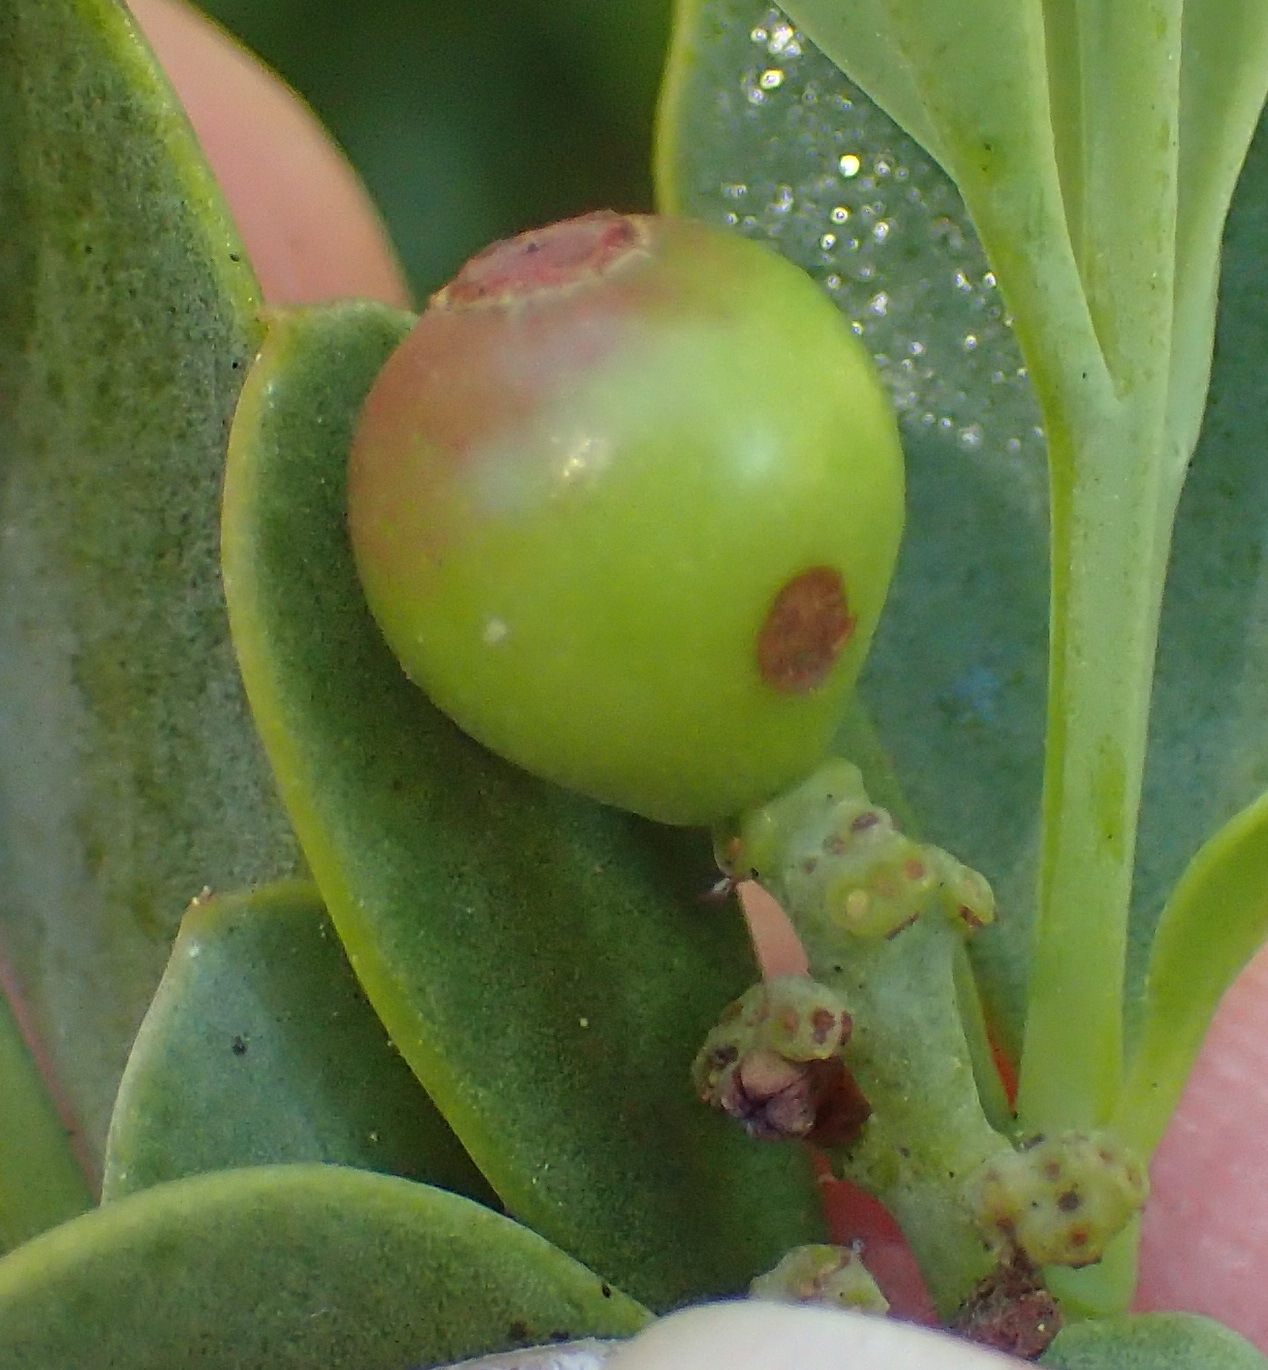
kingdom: Plantae
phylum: Tracheophyta
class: Magnoliopsida
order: Santalales
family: Santalaceae
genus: Osyris
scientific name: Osyris compressa
